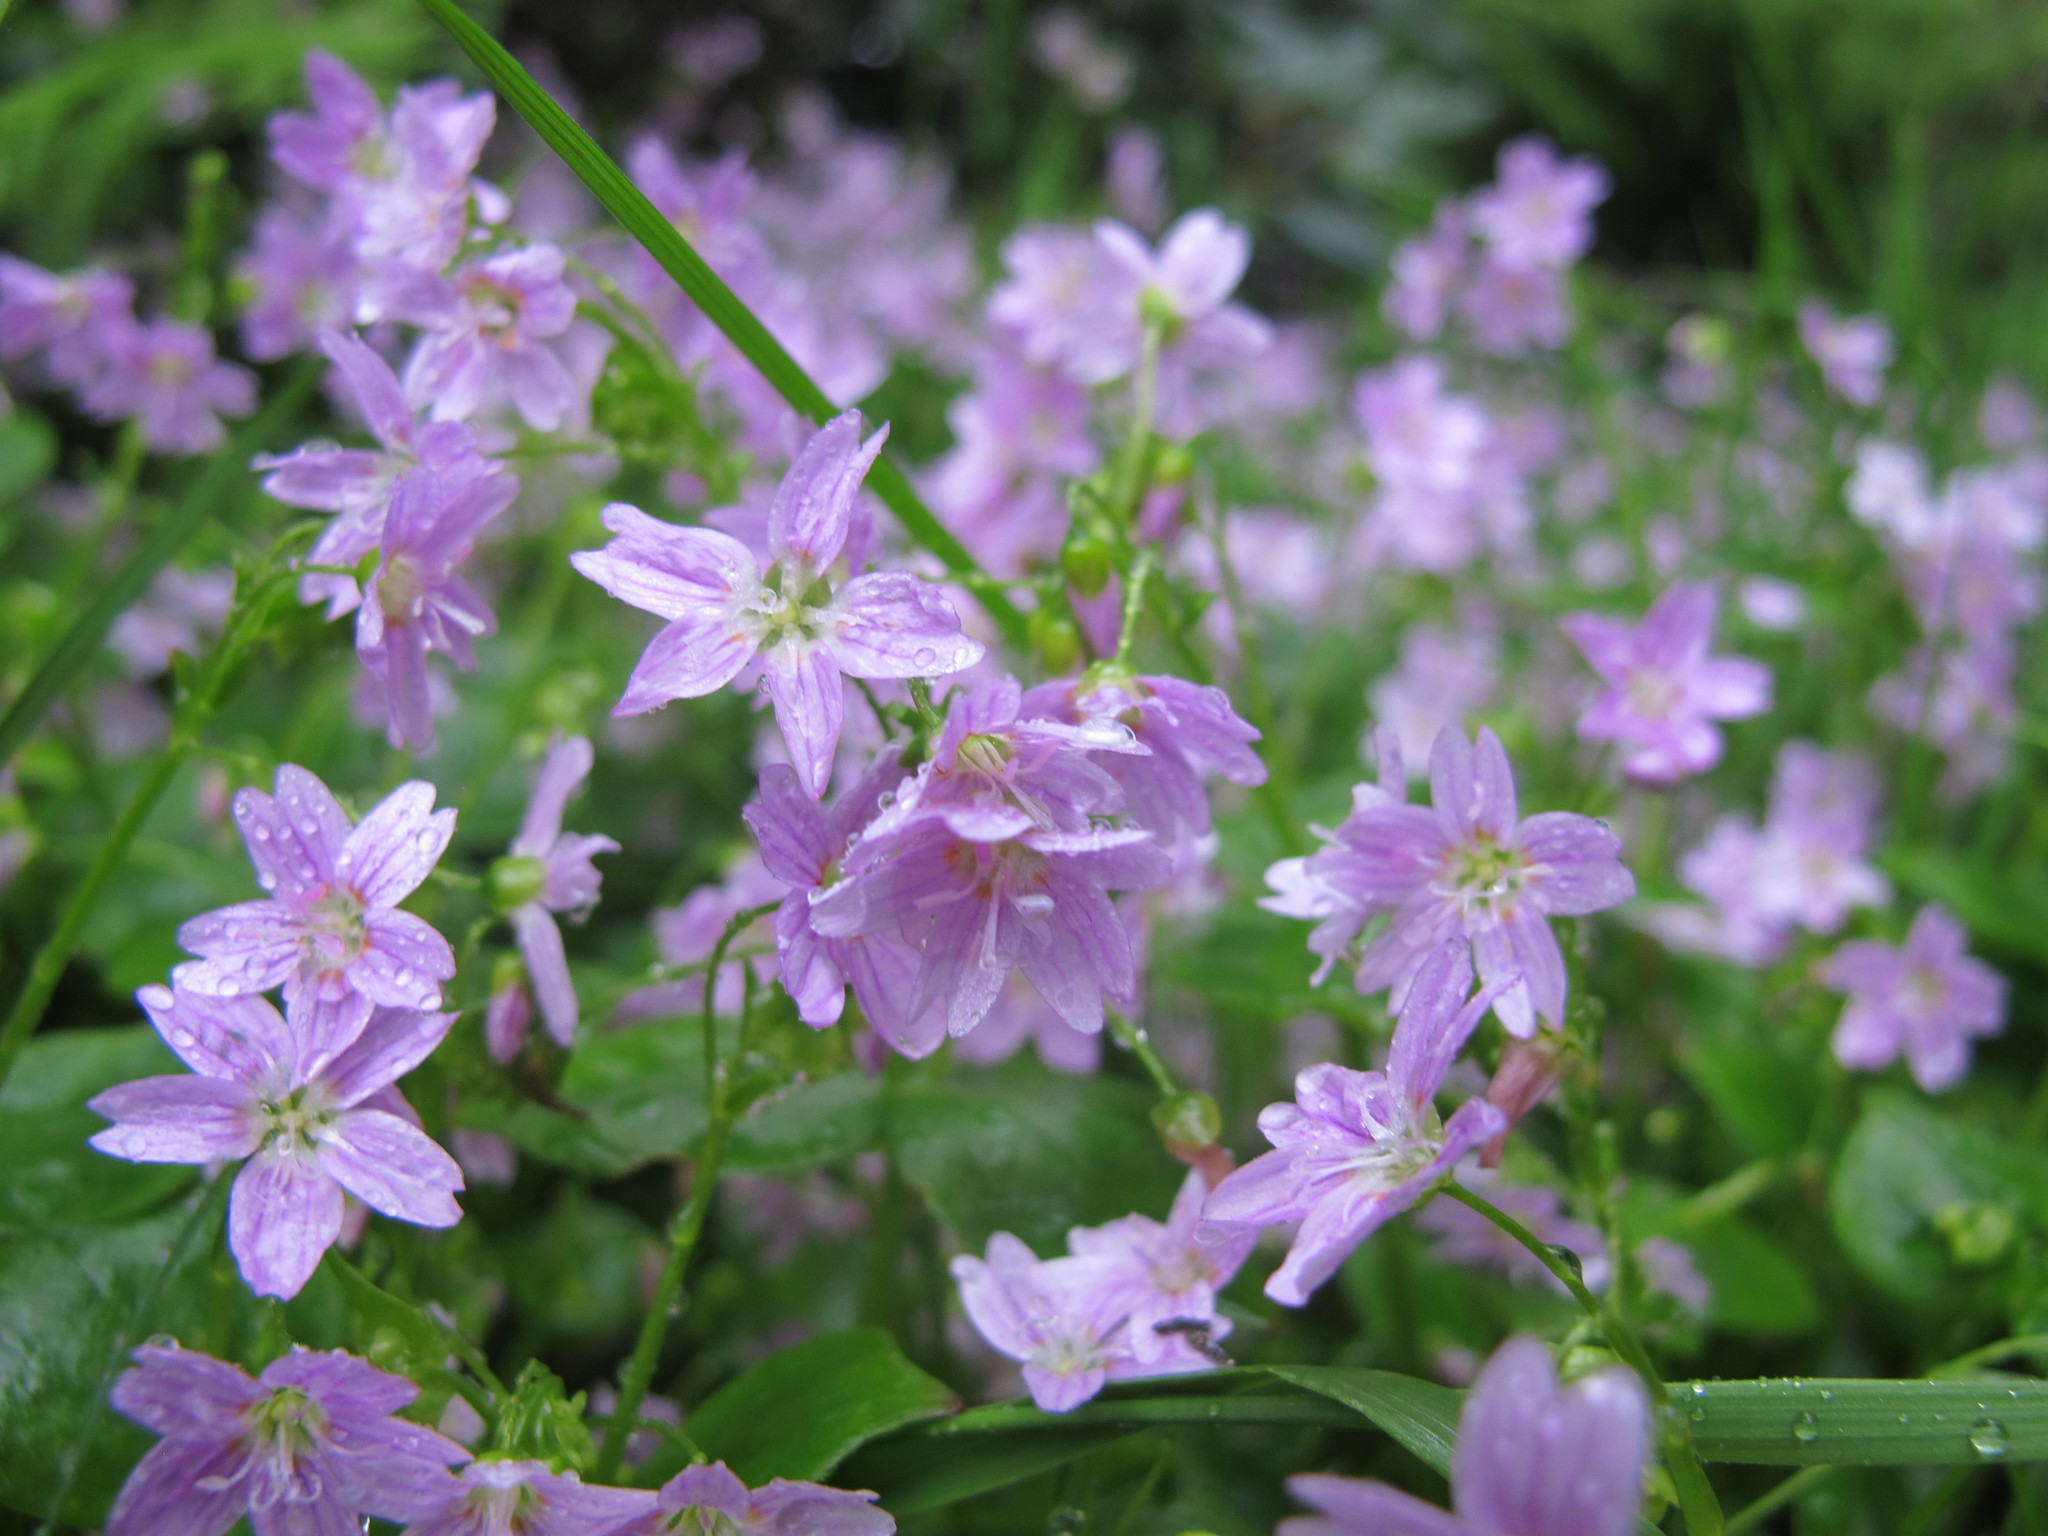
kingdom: Plantae
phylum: Tracheophyta
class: Magnoliopsida
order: Caryophyllales
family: Montiaceae
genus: Claytonia
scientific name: Claytonia sibirica
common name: Pink purslane
